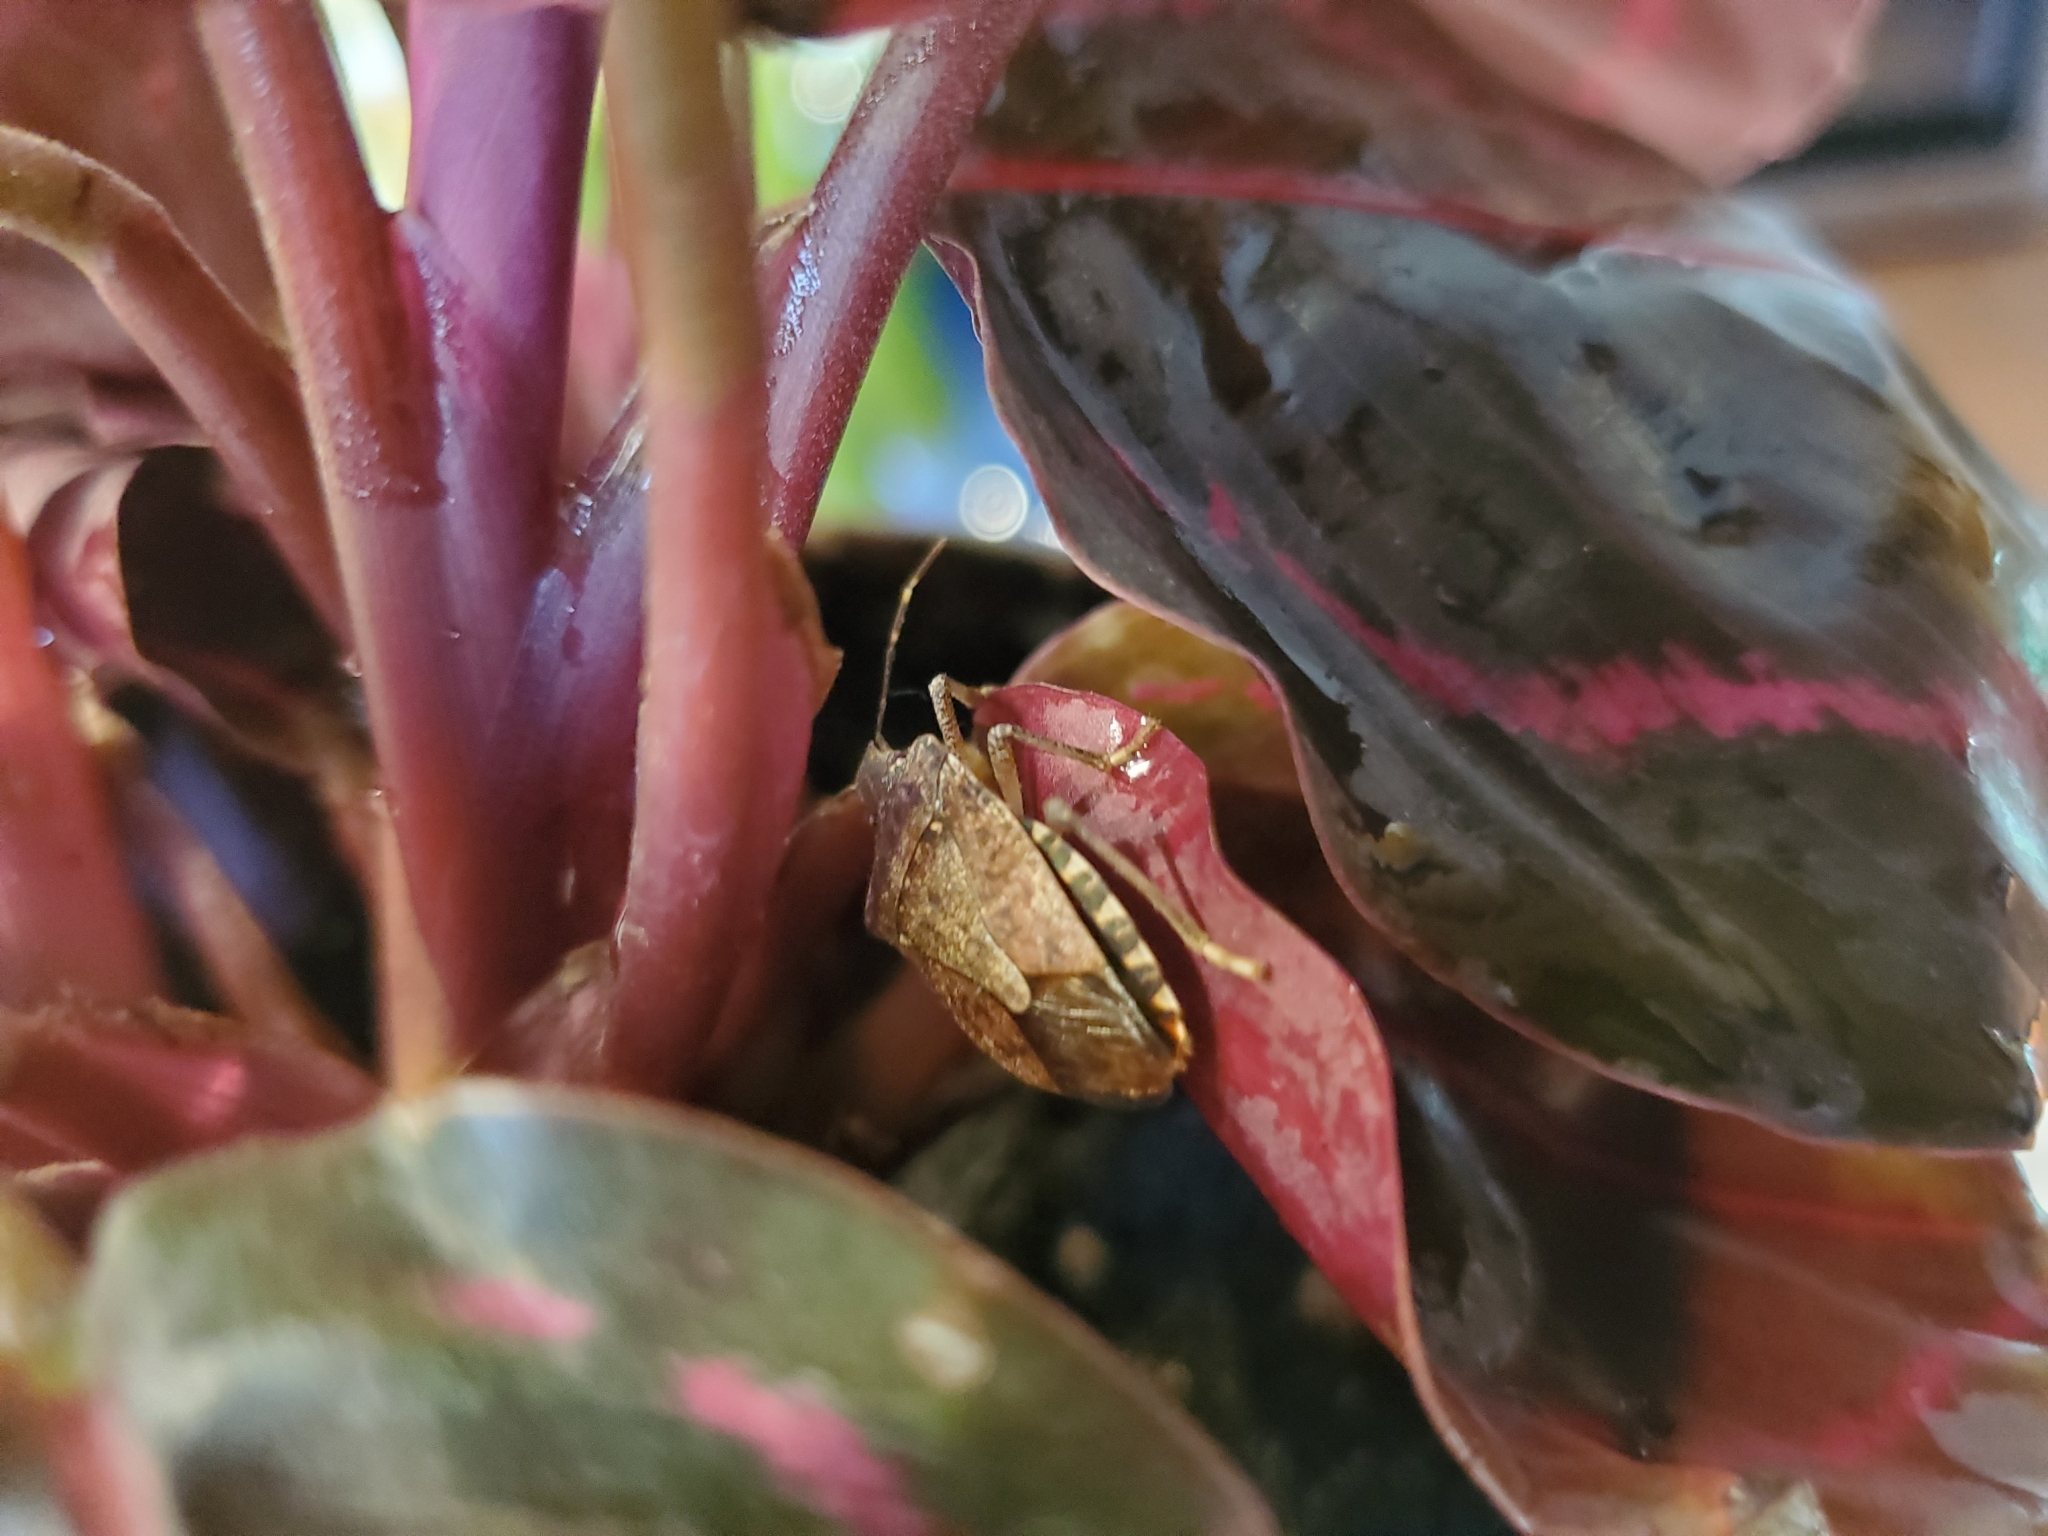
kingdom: Animalia
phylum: Arthropoda
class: Insecta
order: Hemiptera
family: Pentatomidae
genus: Halyomorpha
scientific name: Halyomorpha halys
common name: Brown marmorated stink bug
